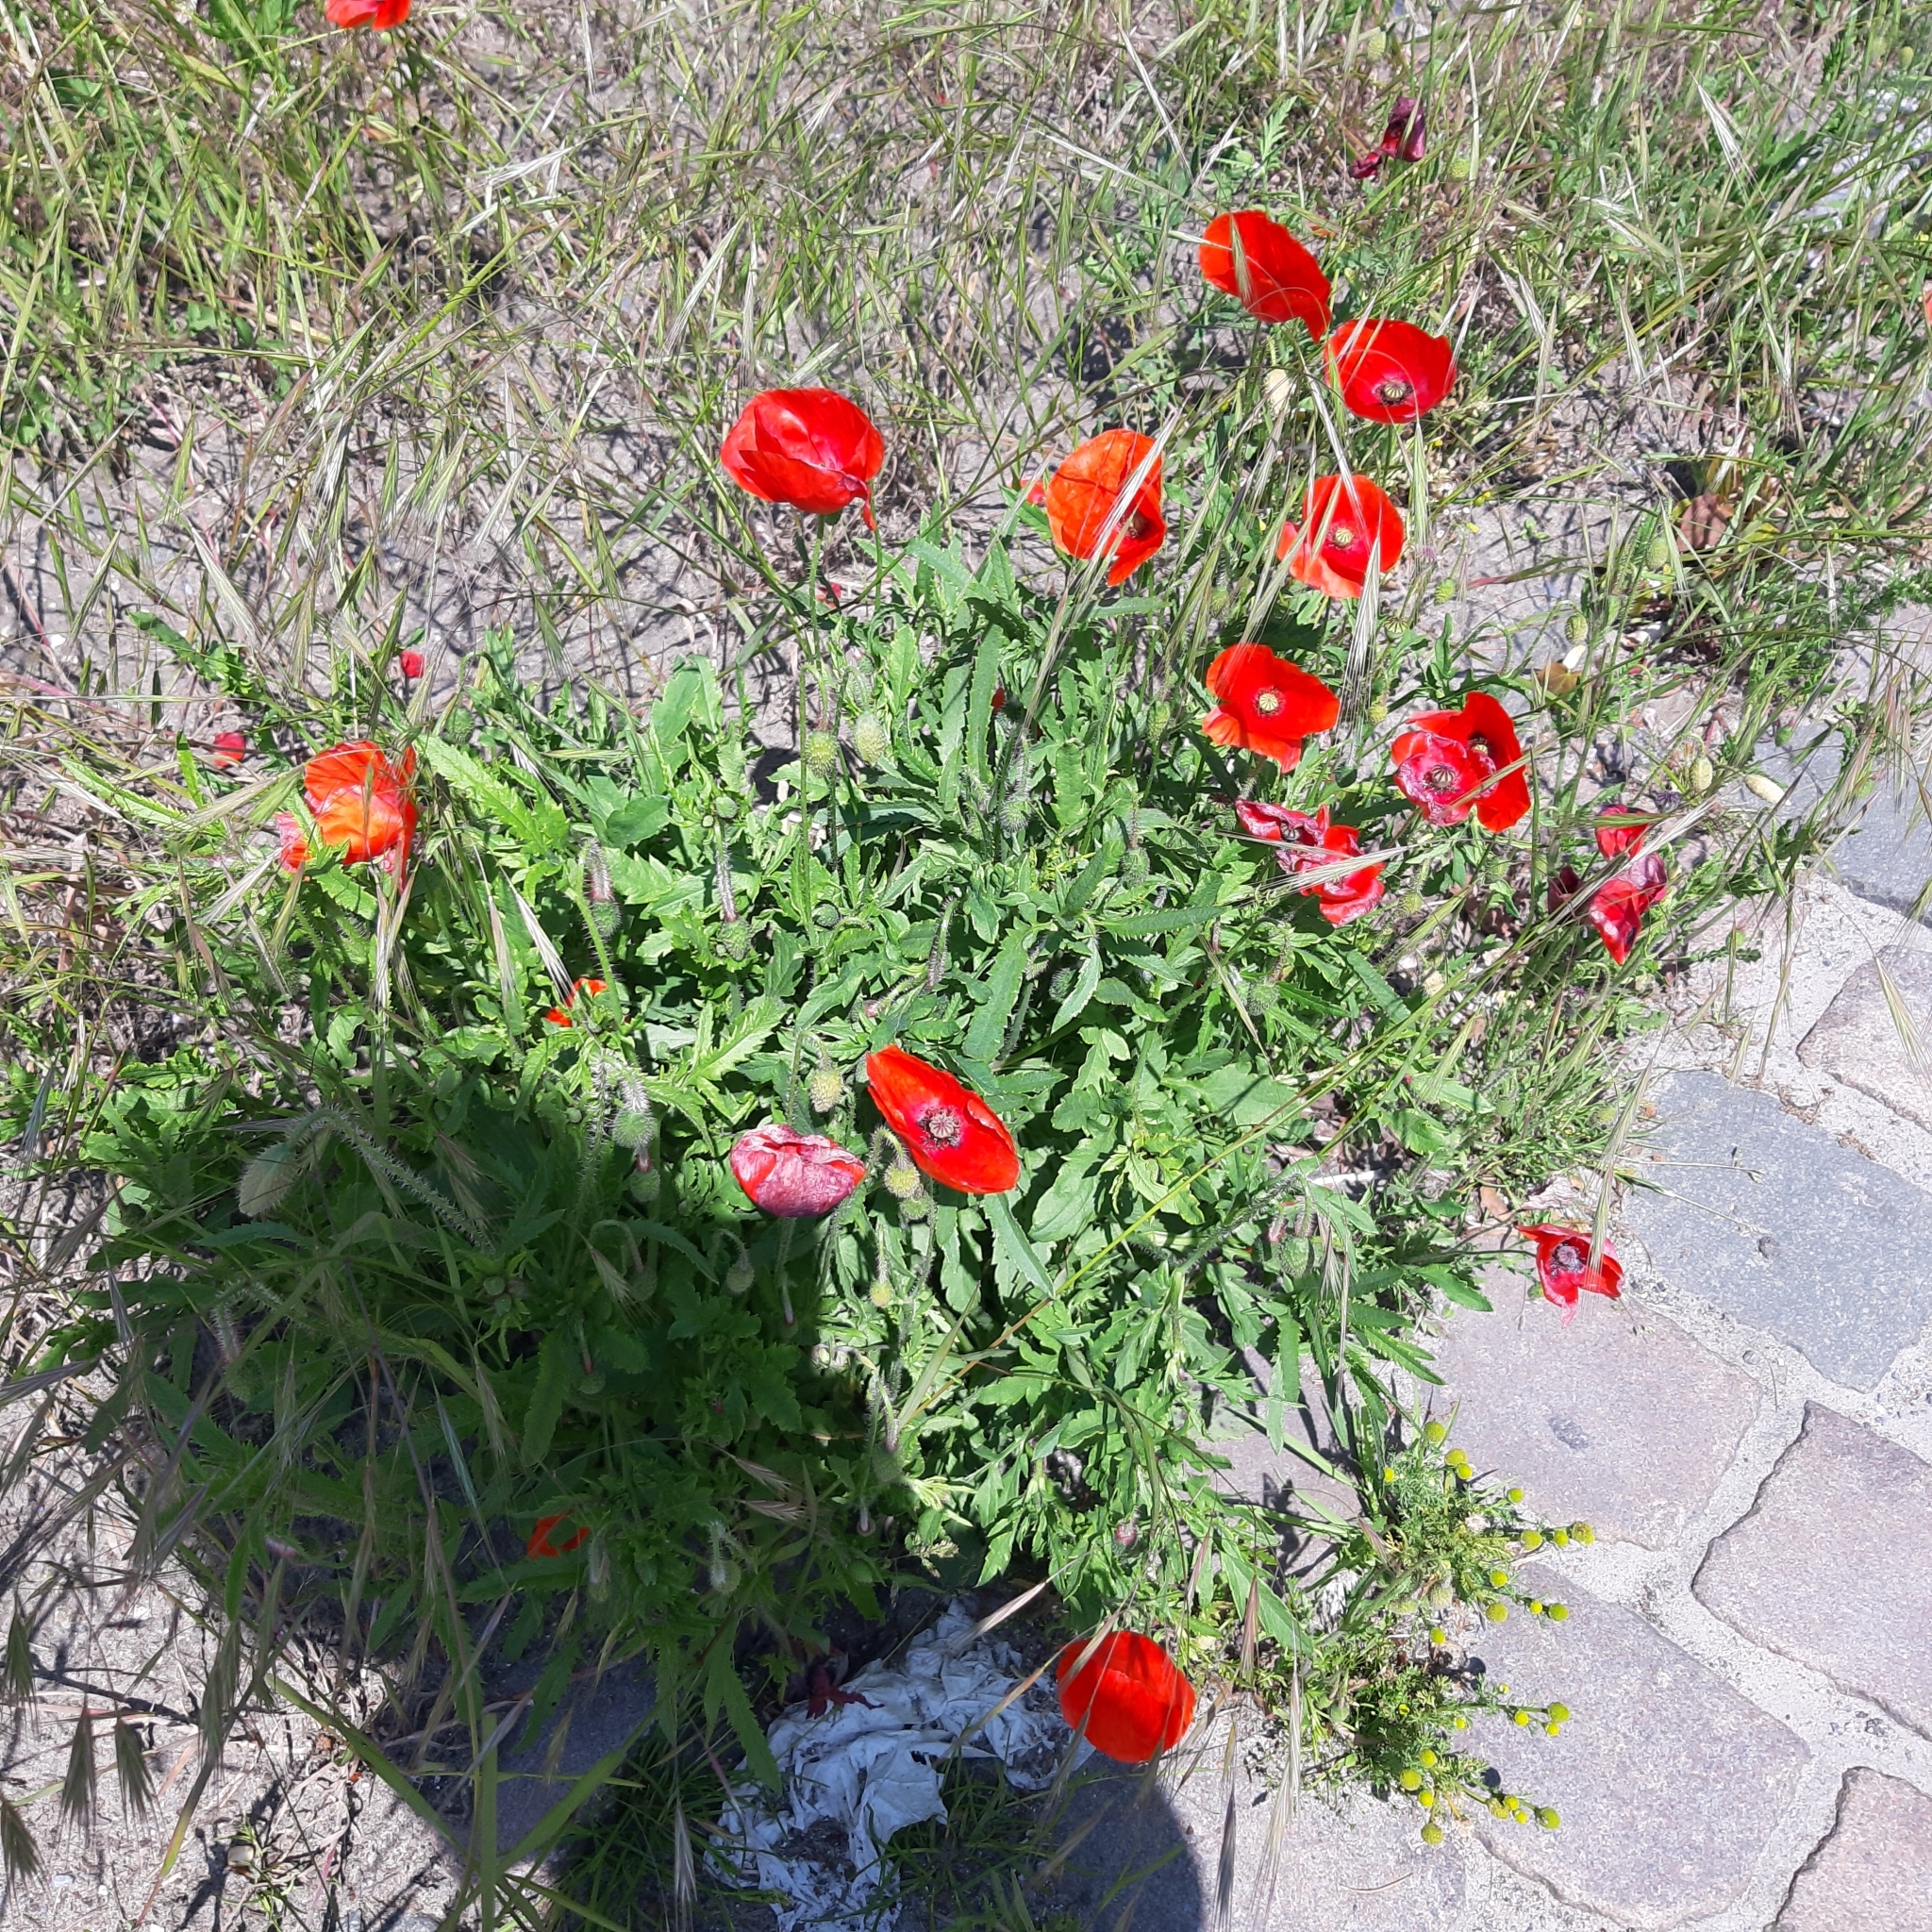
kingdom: Plantae
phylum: Tracheophyta
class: Magnoliopsida
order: Ranunculales
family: Papaveraceae
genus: Papaver
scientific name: Papaver rhoeas
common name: Corn poppy
